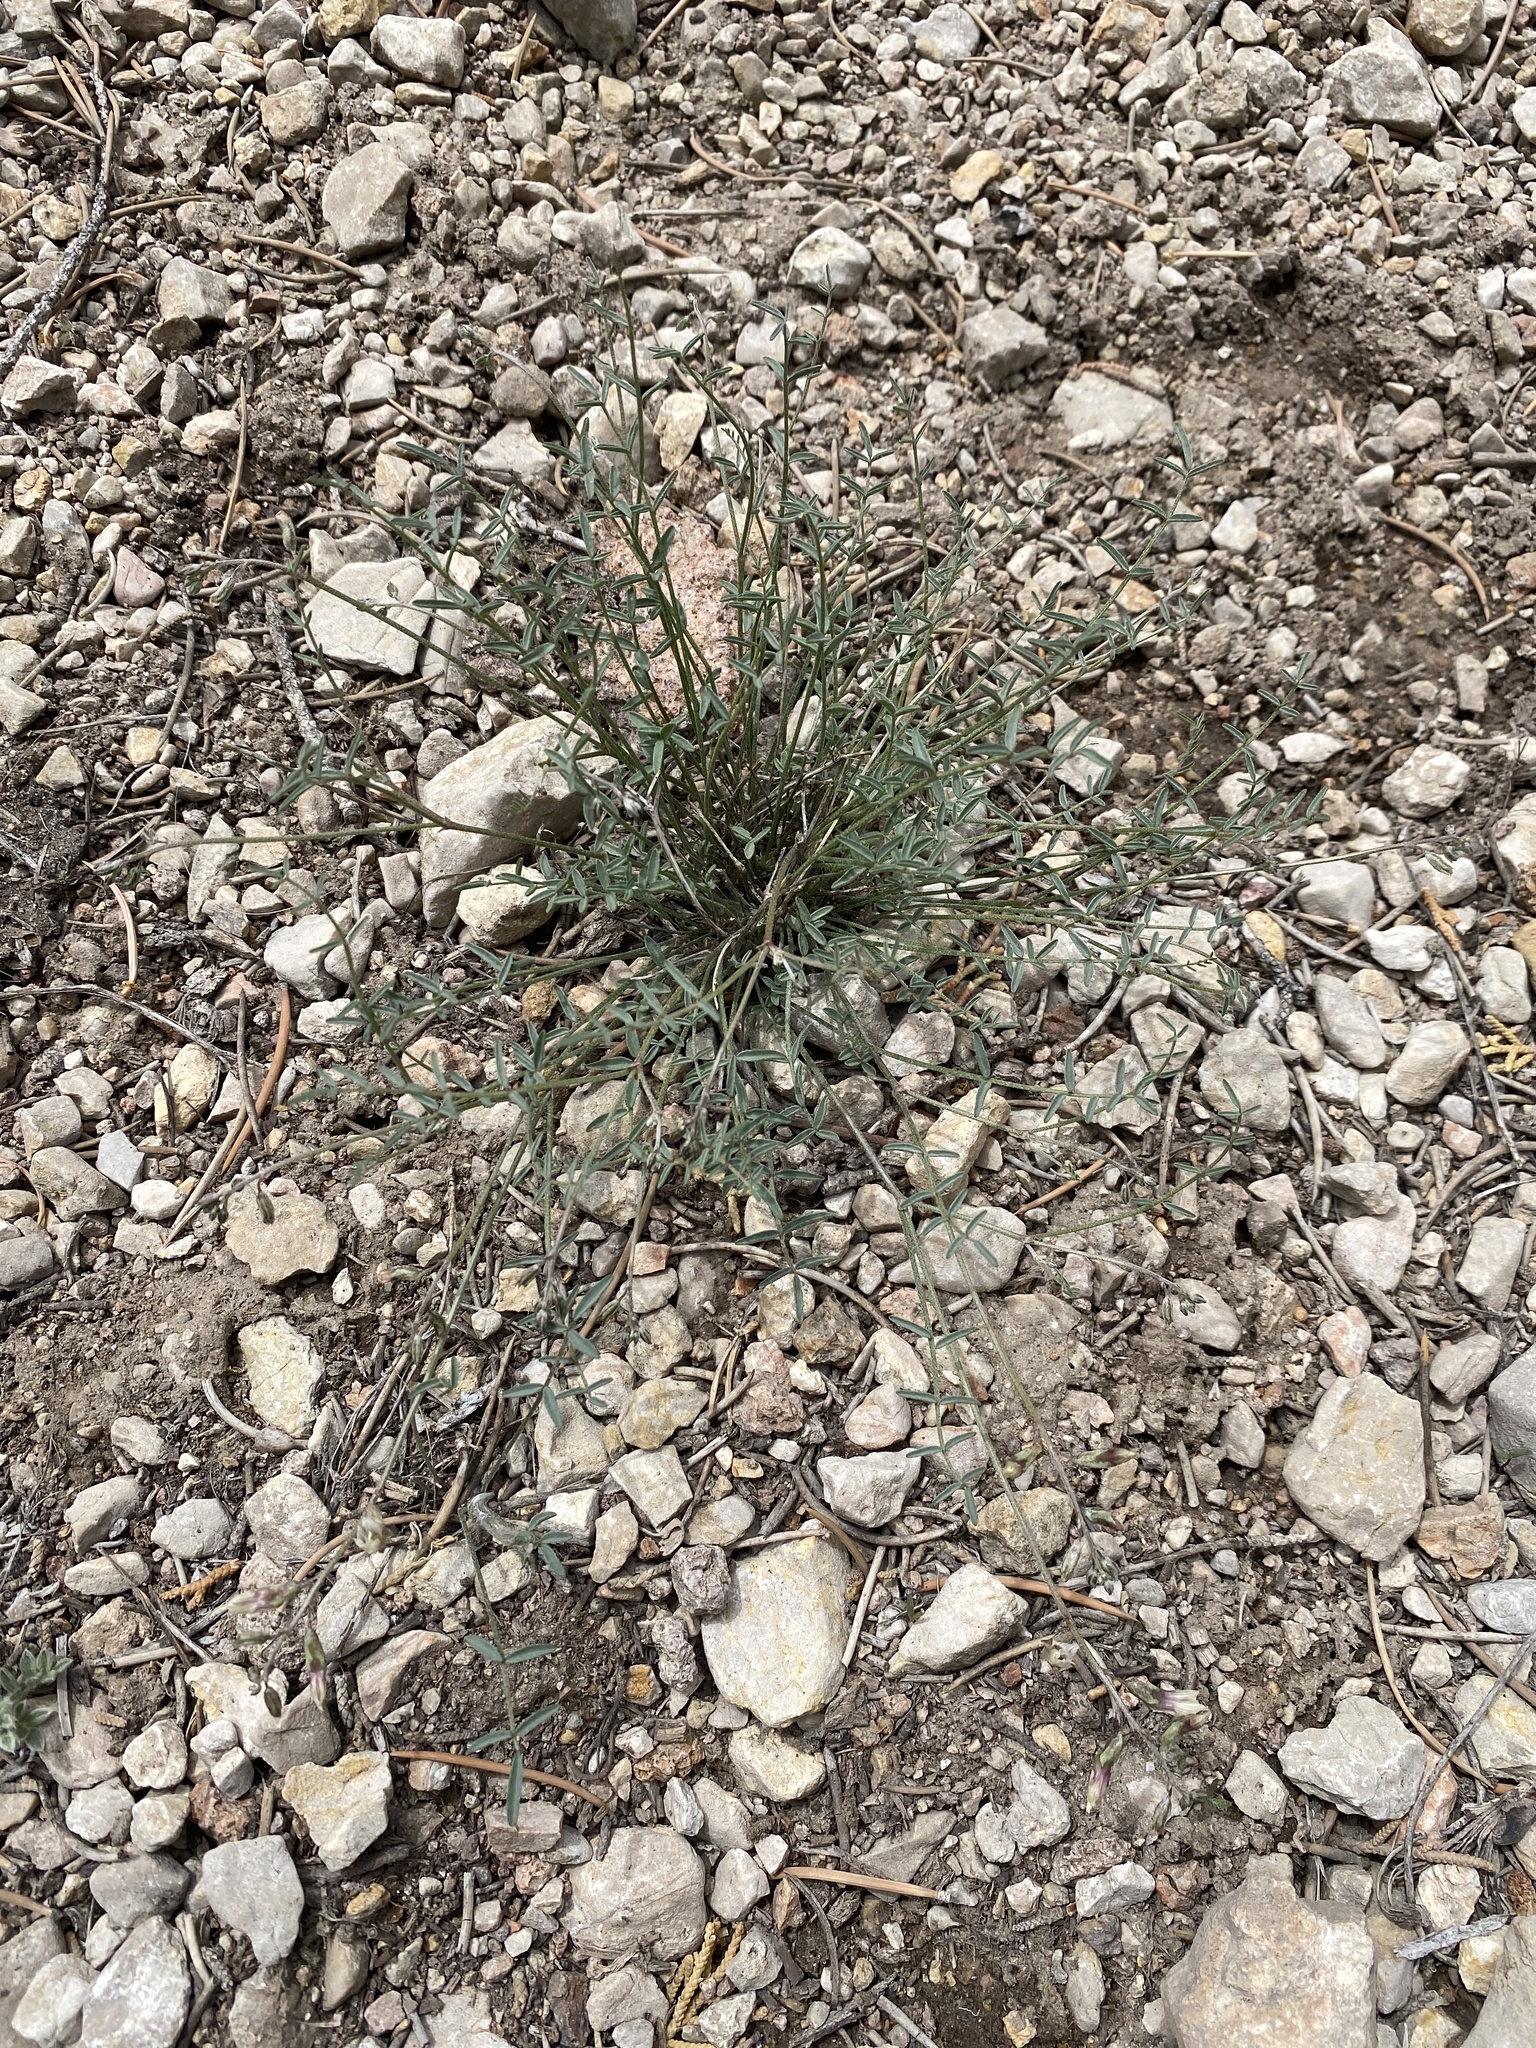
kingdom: Plantae
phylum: Tracheophyta
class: Magnoliopsida
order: Fabales
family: Fabaceae
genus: Astragalus
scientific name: Astragalus atratus
